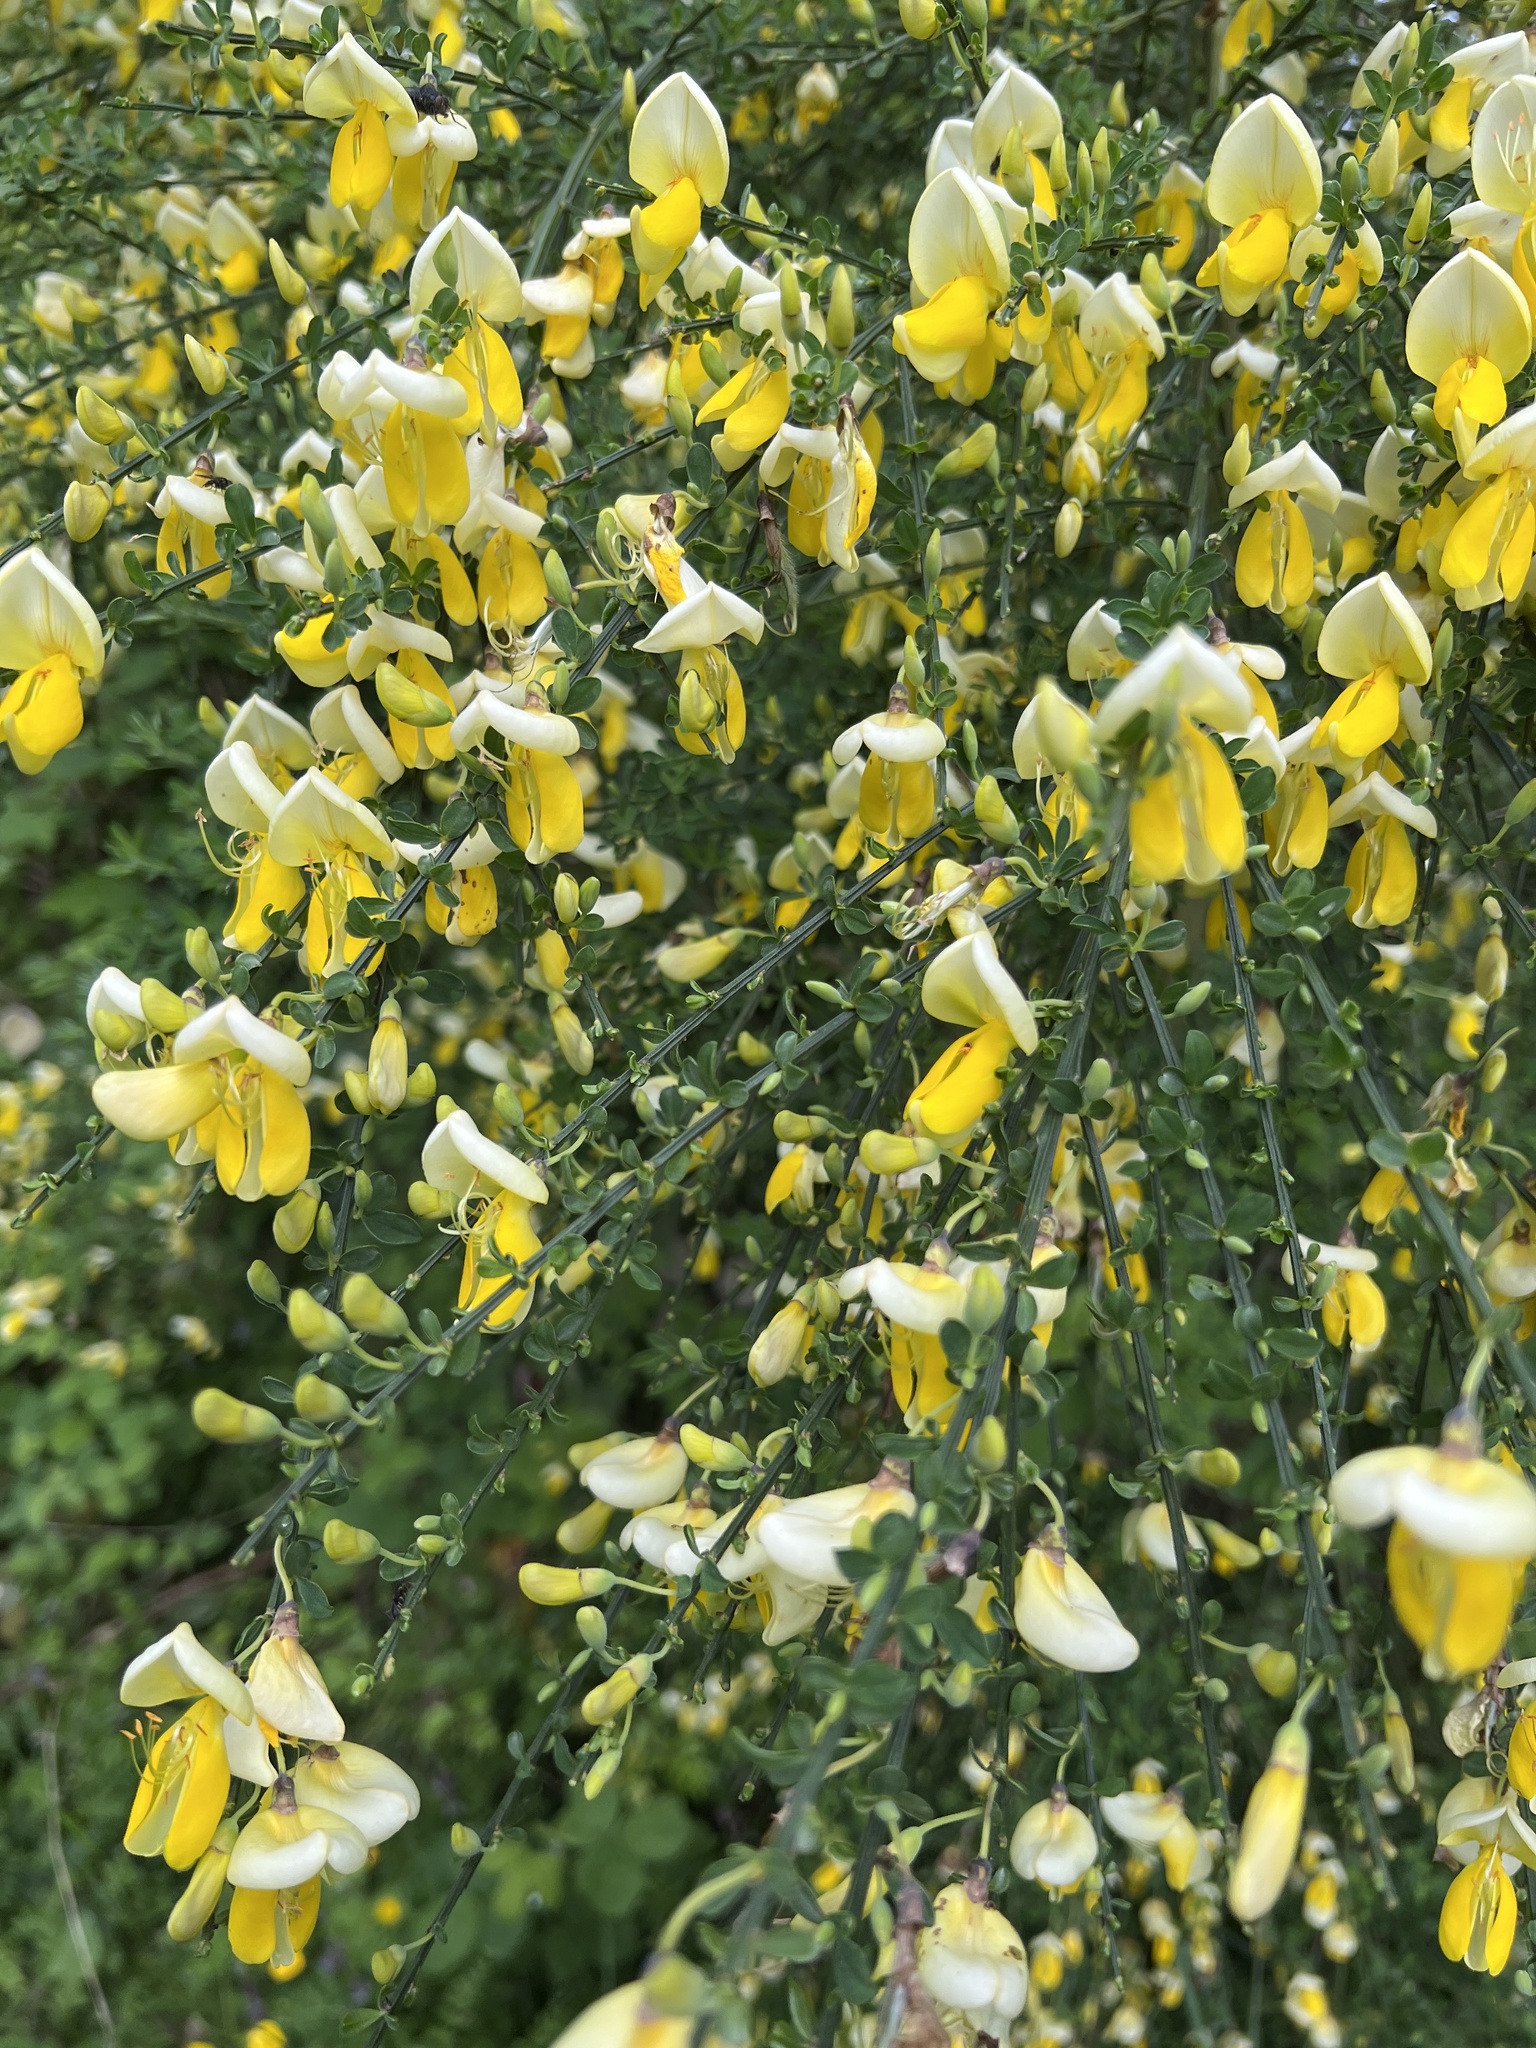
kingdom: Plantae
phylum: Tracheophyta
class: Magnoliopsida
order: Fabales
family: Fabaceae
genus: Cytisus
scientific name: Cytisus scoparius
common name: Scotch broom
